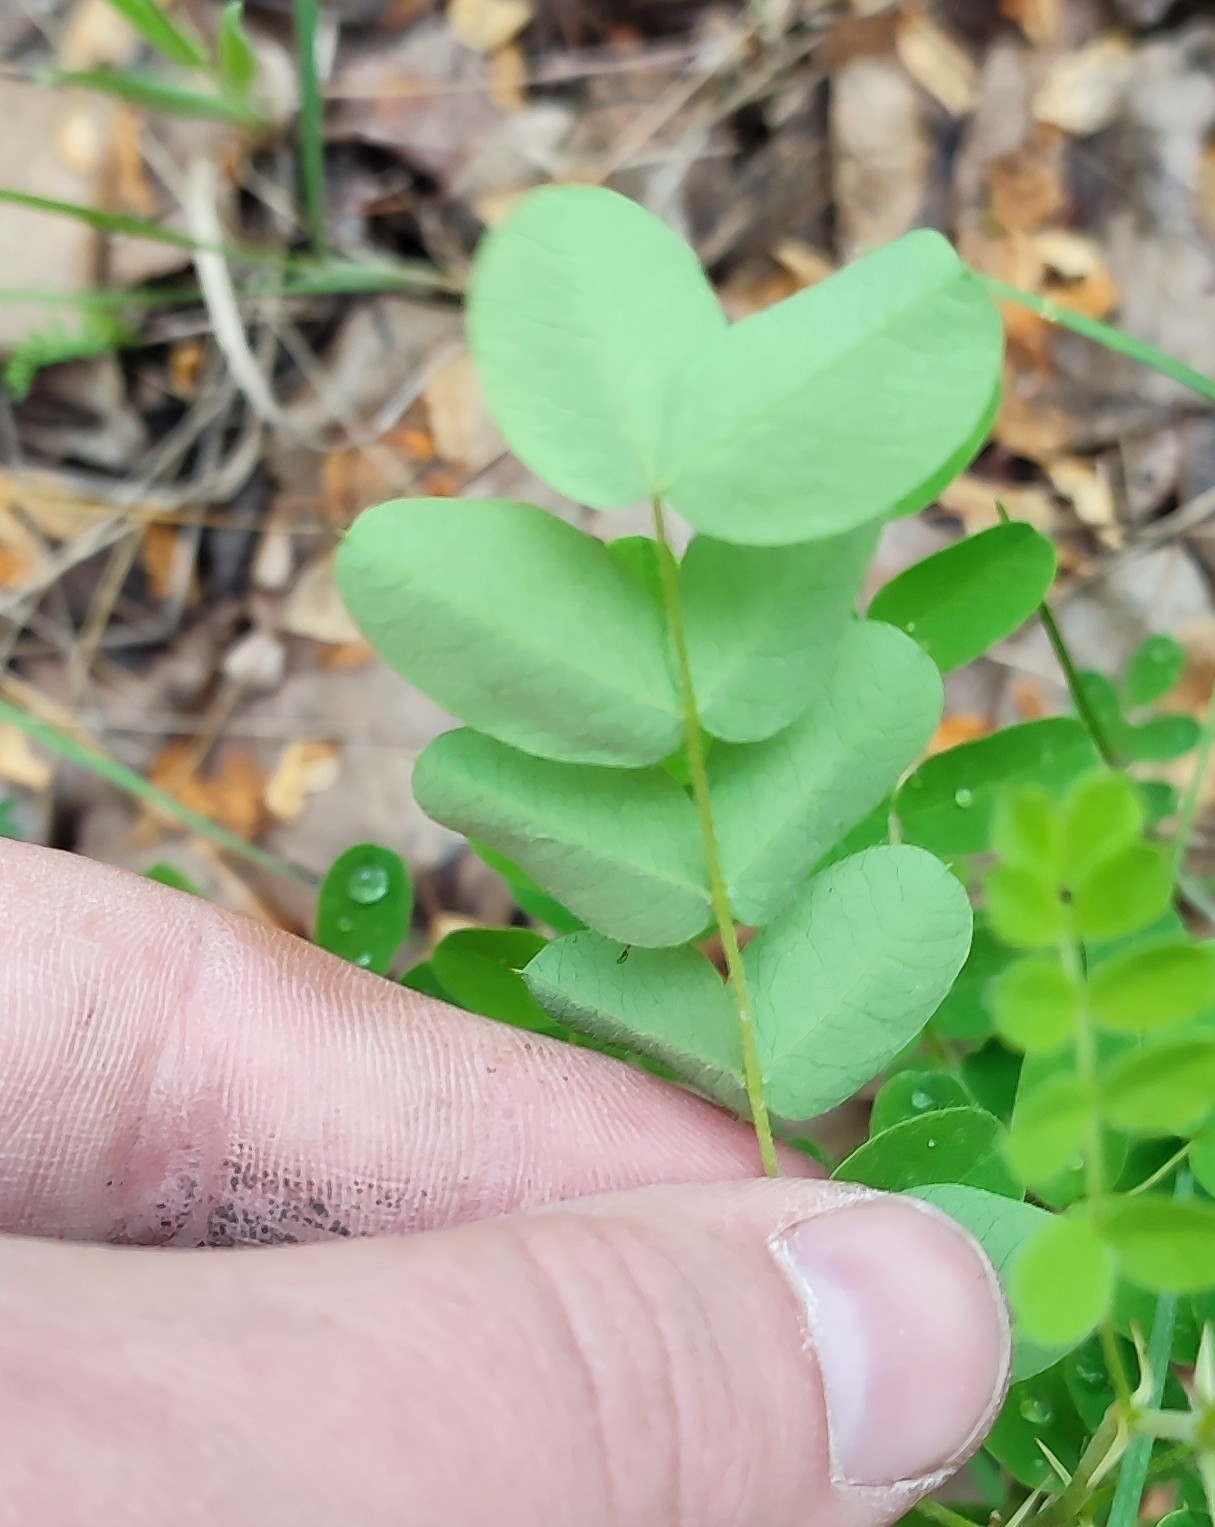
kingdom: Plantae
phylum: Tracheophyta
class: Magnoliopsida
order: Fabales
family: Fabaceae
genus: Caragana
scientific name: Caragana arborescens
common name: Siberian peashrub
